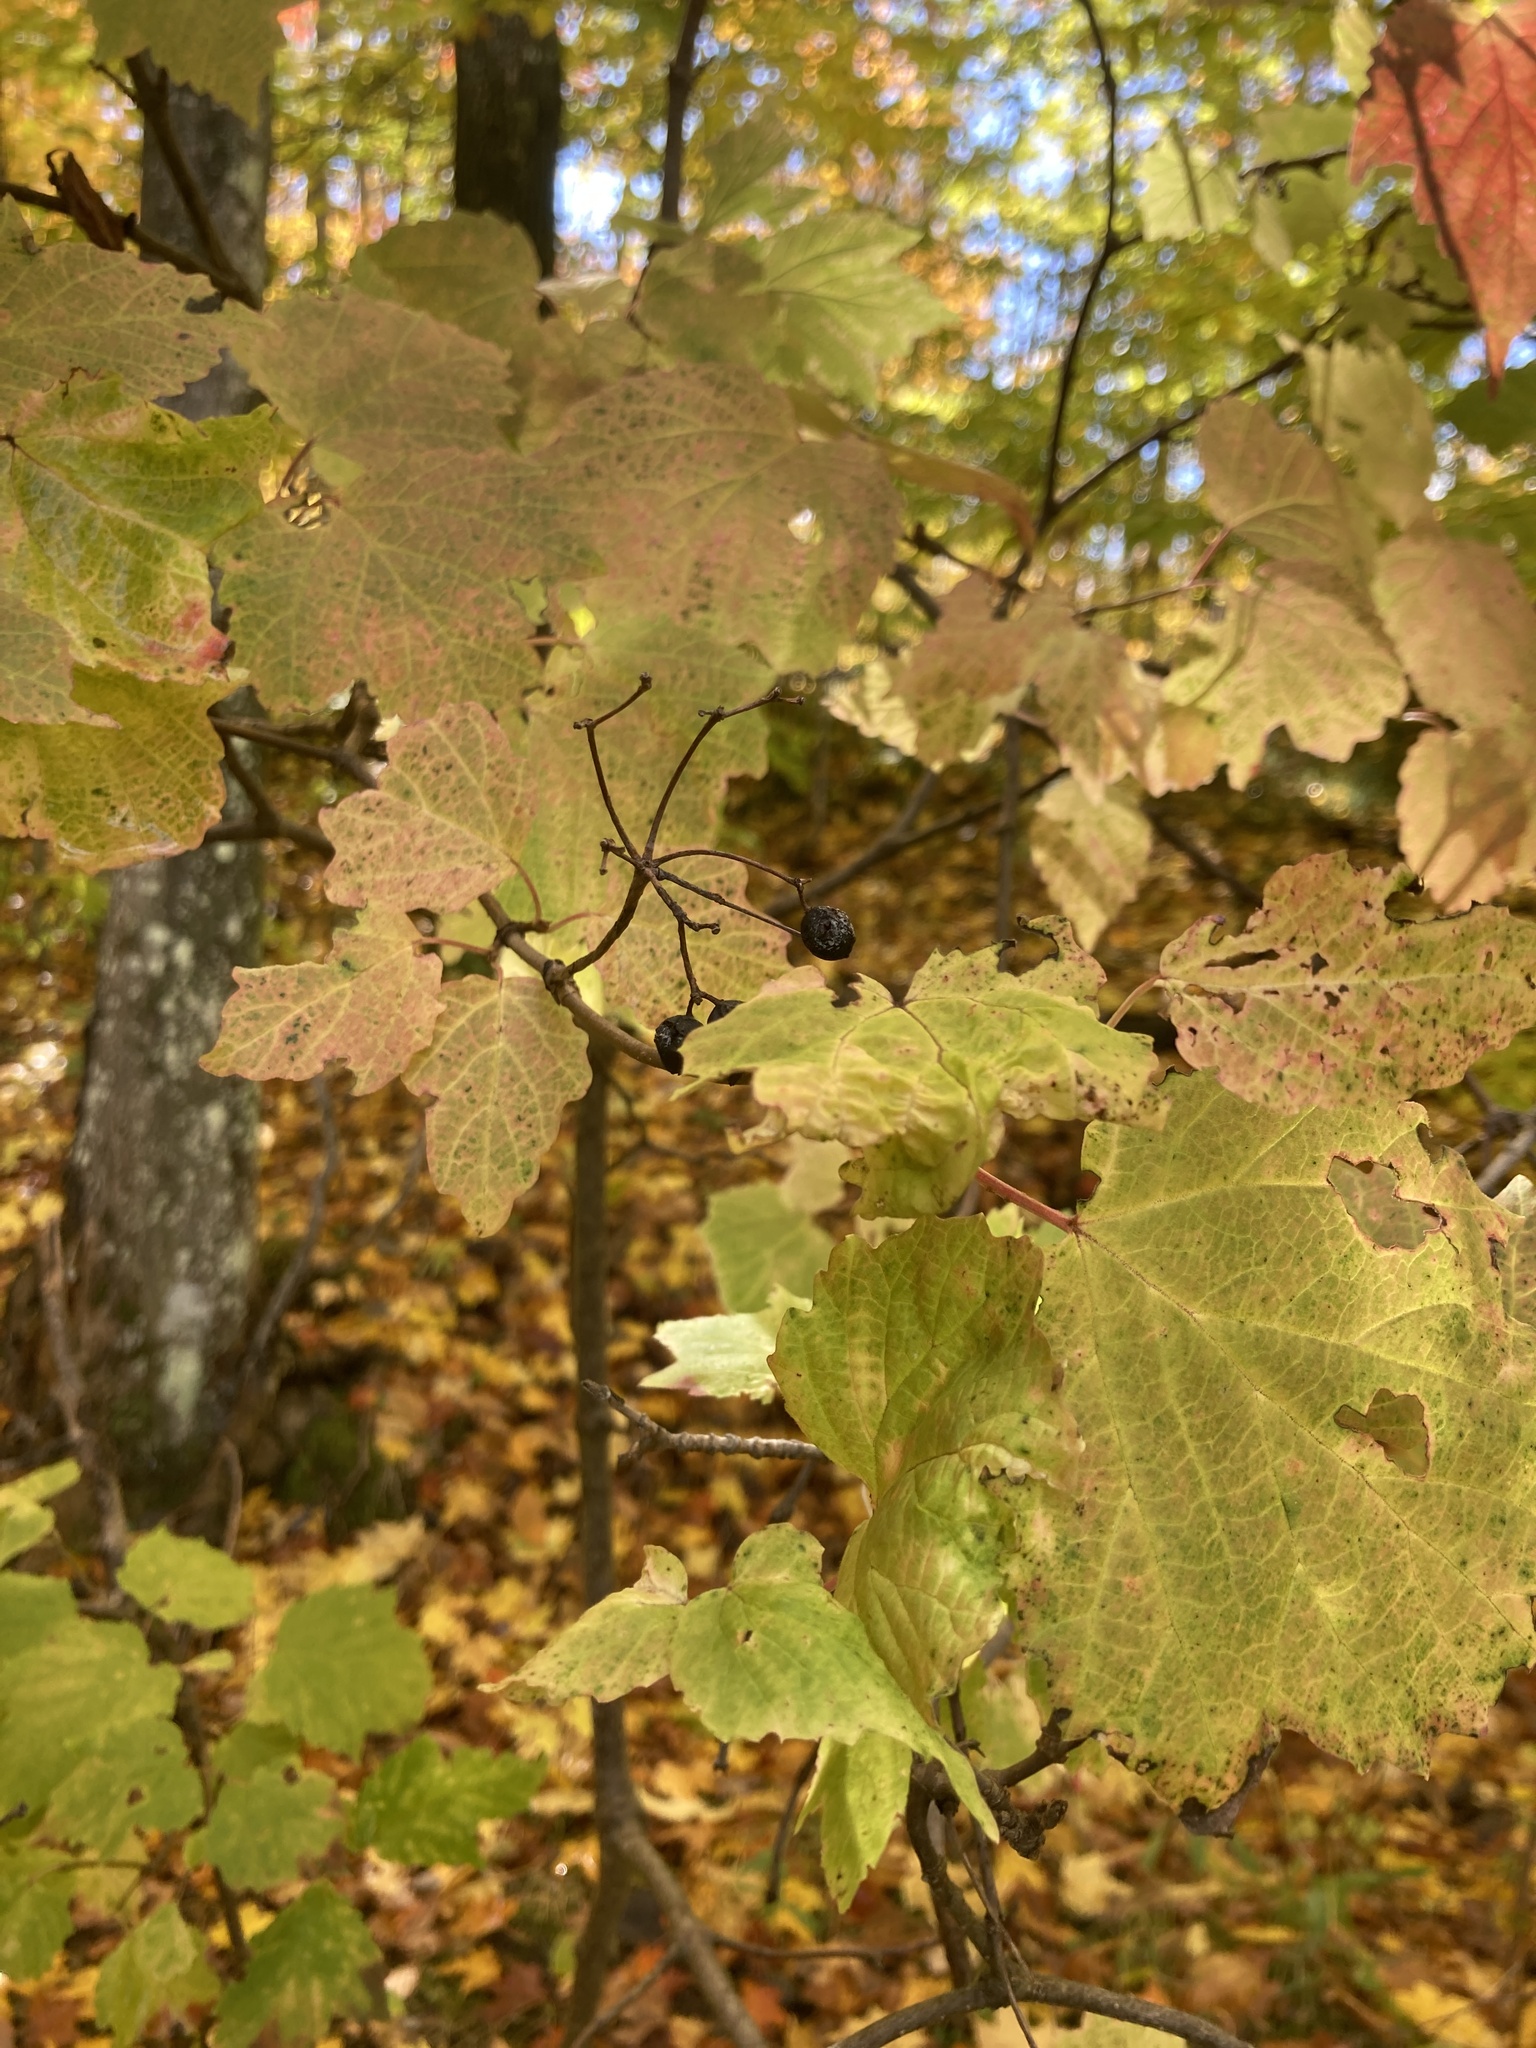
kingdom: Plantae
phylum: Tracheophyta
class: Magnoliopsida
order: Dipsacales
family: Viburnaceae
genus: Viburnum
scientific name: Viburnum acerifolium
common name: Dockmackie
